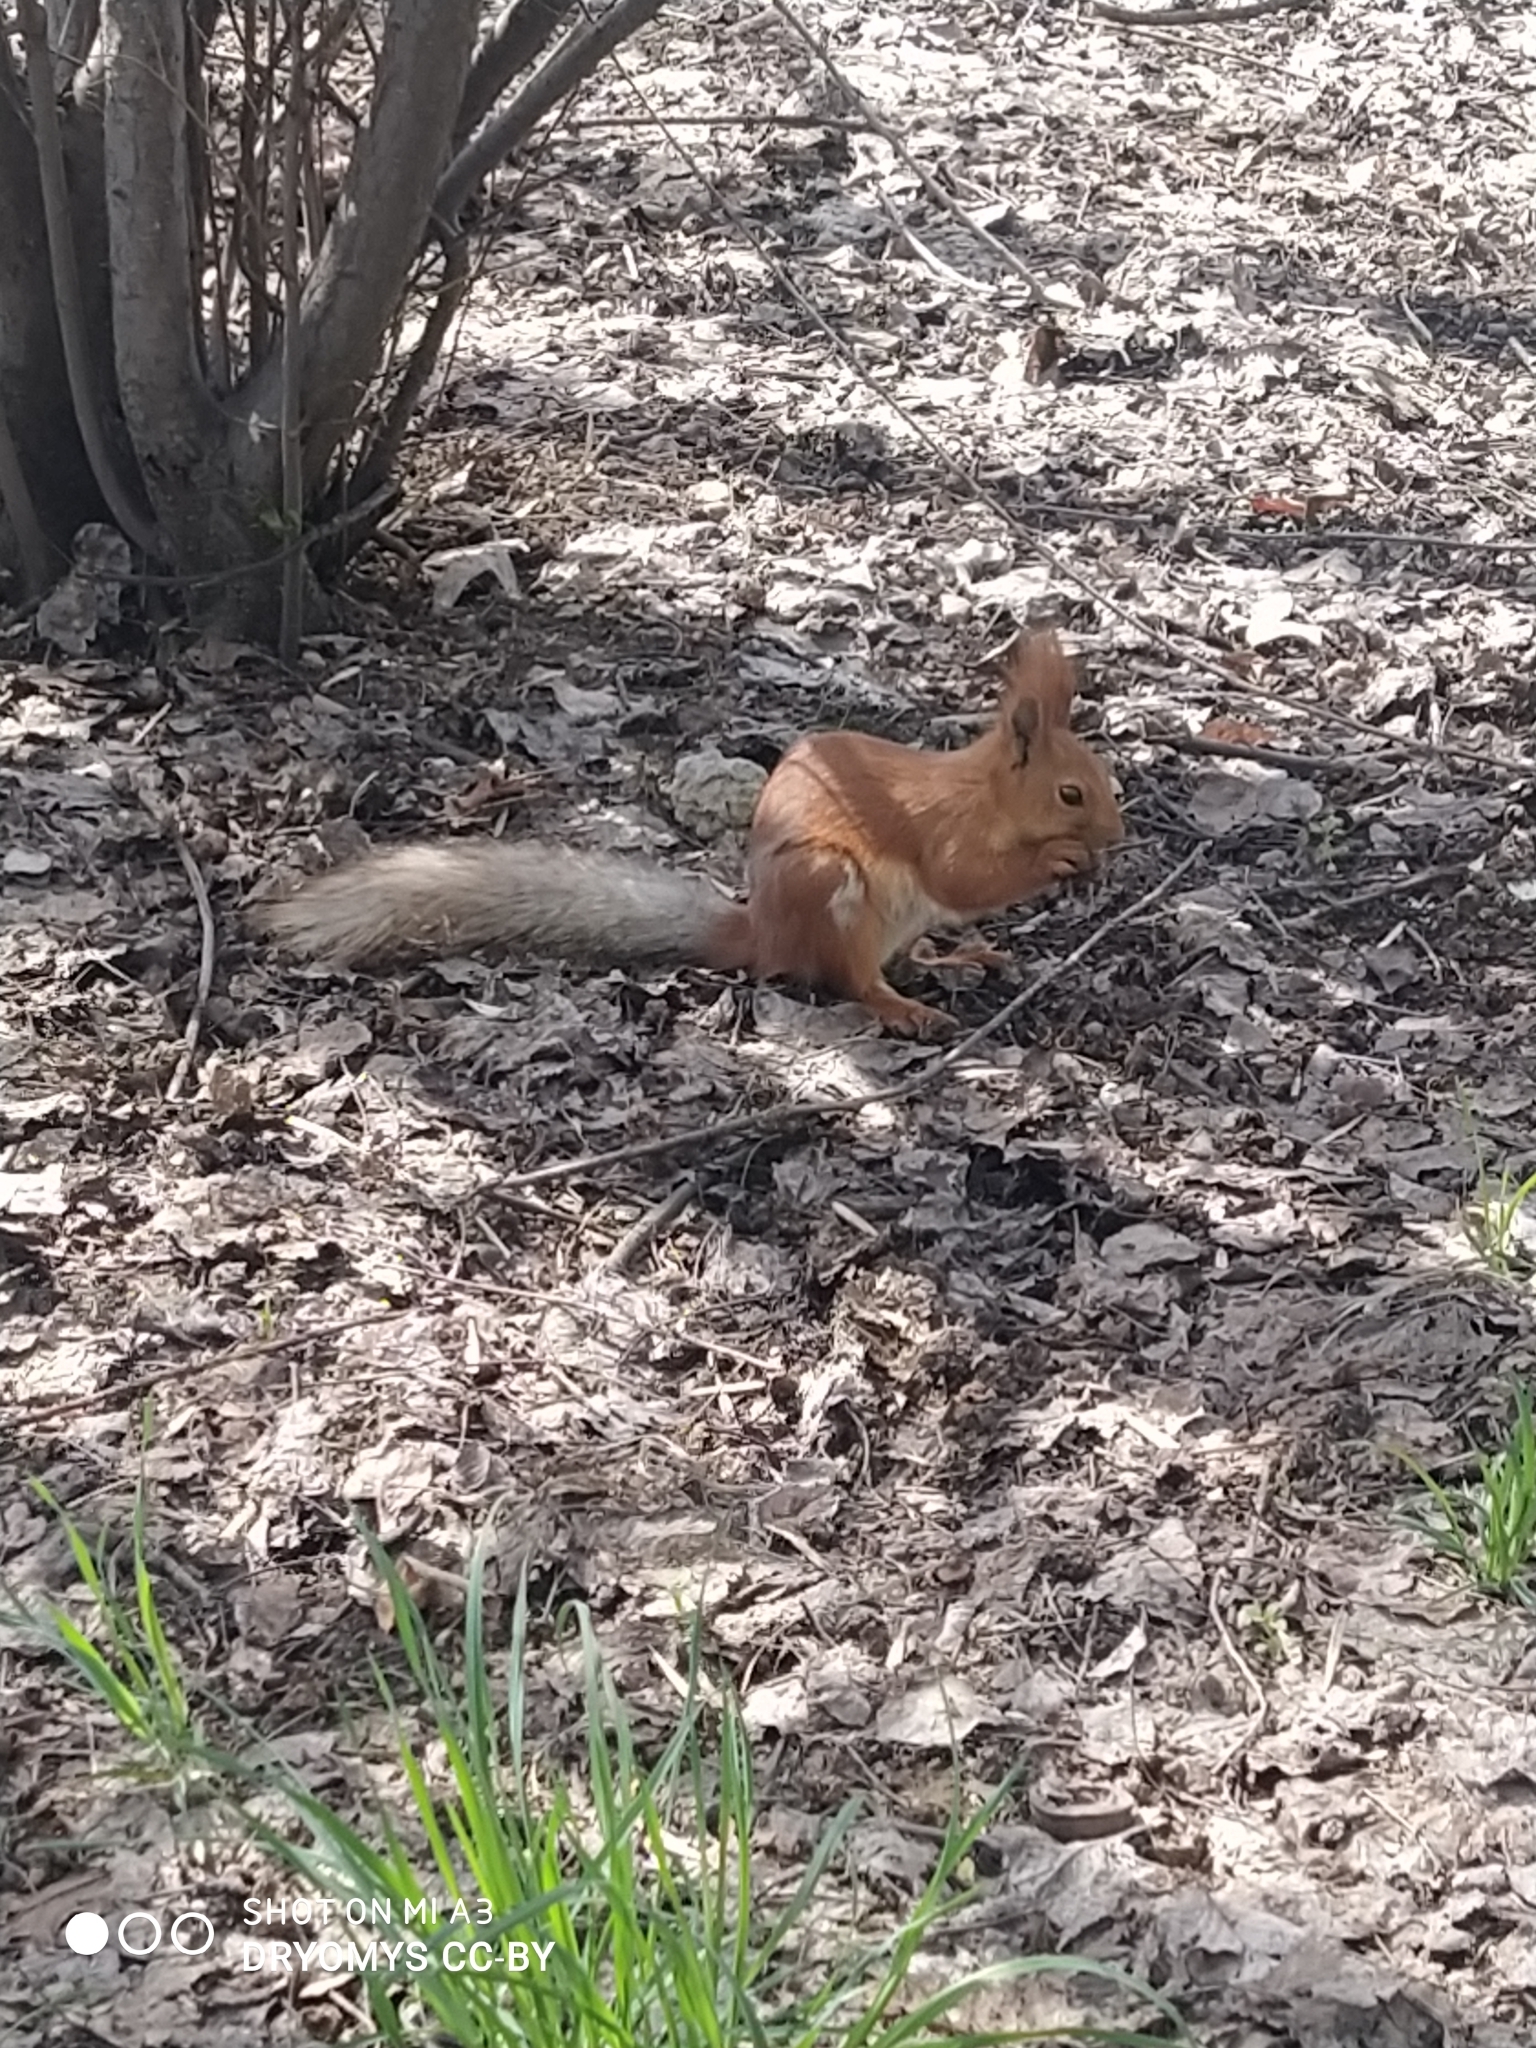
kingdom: Animalia
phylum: Chordata
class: Mammalia
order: Rodentia
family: Sciuridae
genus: Sciurus
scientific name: Sciurus vulgaris
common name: Eurasian red squirrel
